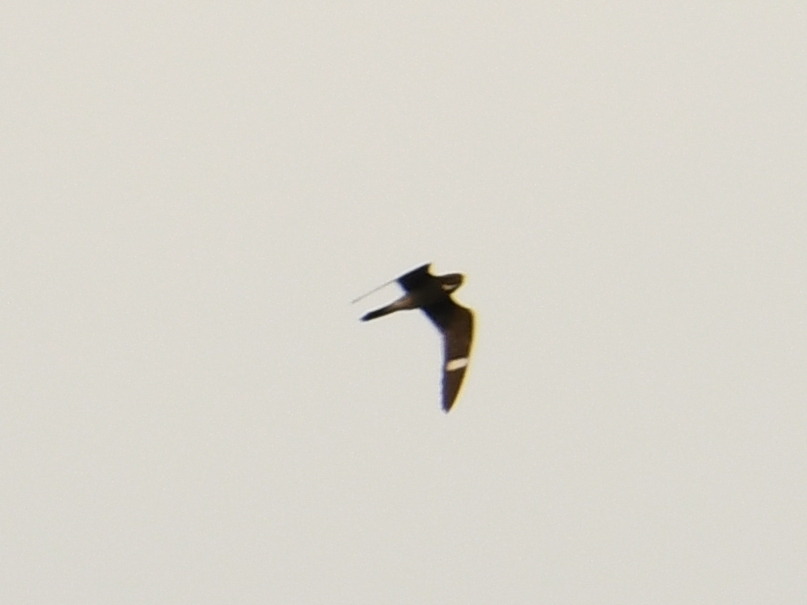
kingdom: Animalia
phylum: Chordata
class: Aves
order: Caprimulgiformes
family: Caprimulgidae
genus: Chordeiles
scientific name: Chordeiles minor
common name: Common nighthawk
